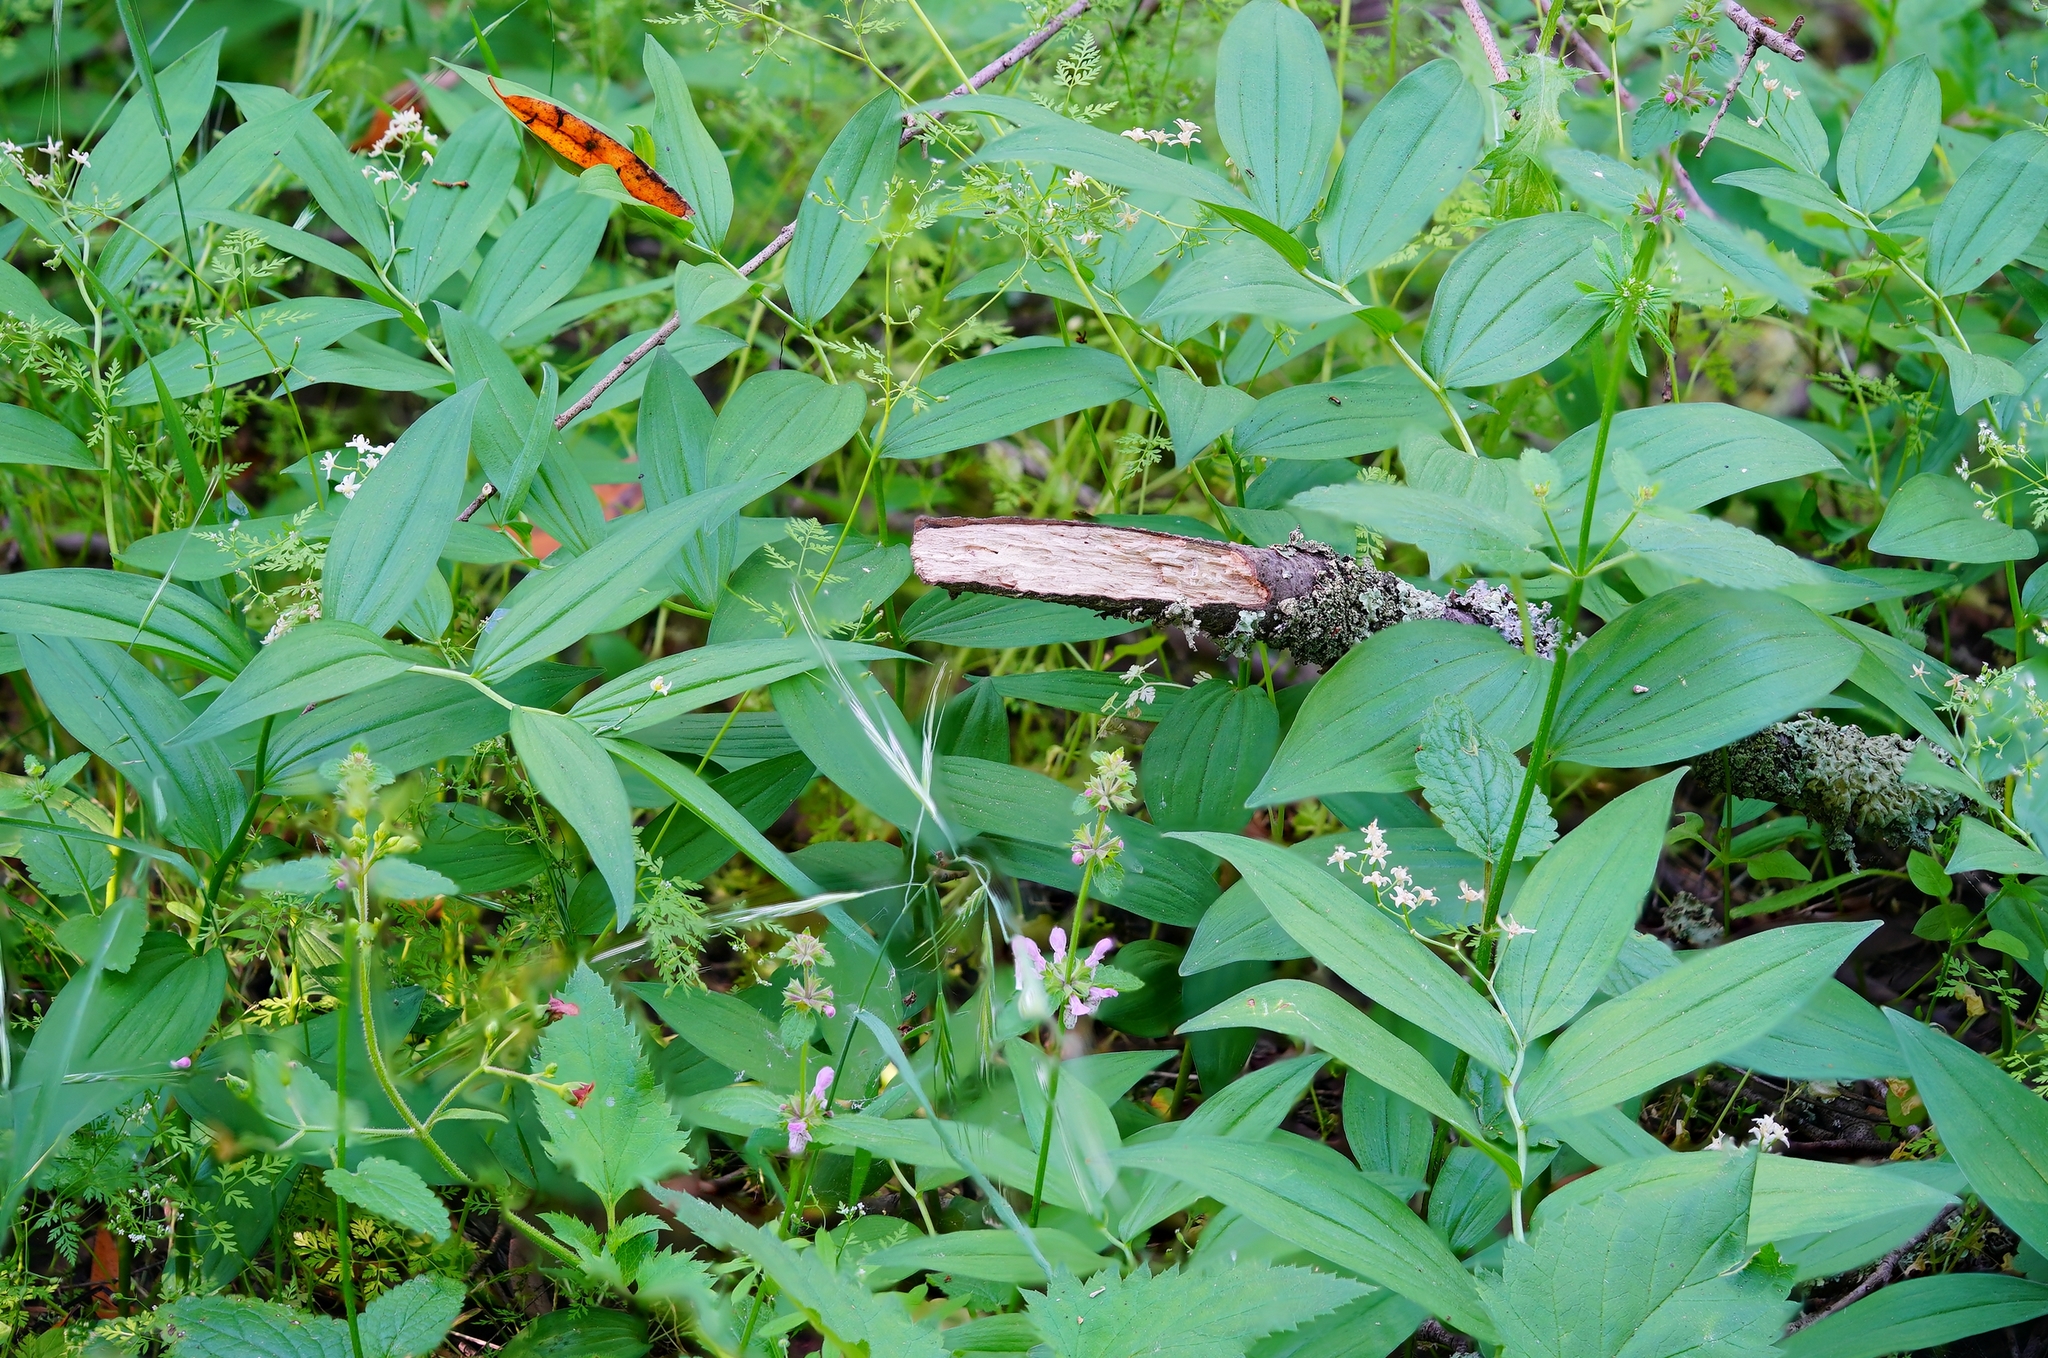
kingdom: Plantae
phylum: Tracheophyta
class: Liliopsida
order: Asparagales
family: Asparagaceae
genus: Maianthemum
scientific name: Maianthemum stellatum
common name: Little false solomon's seal
